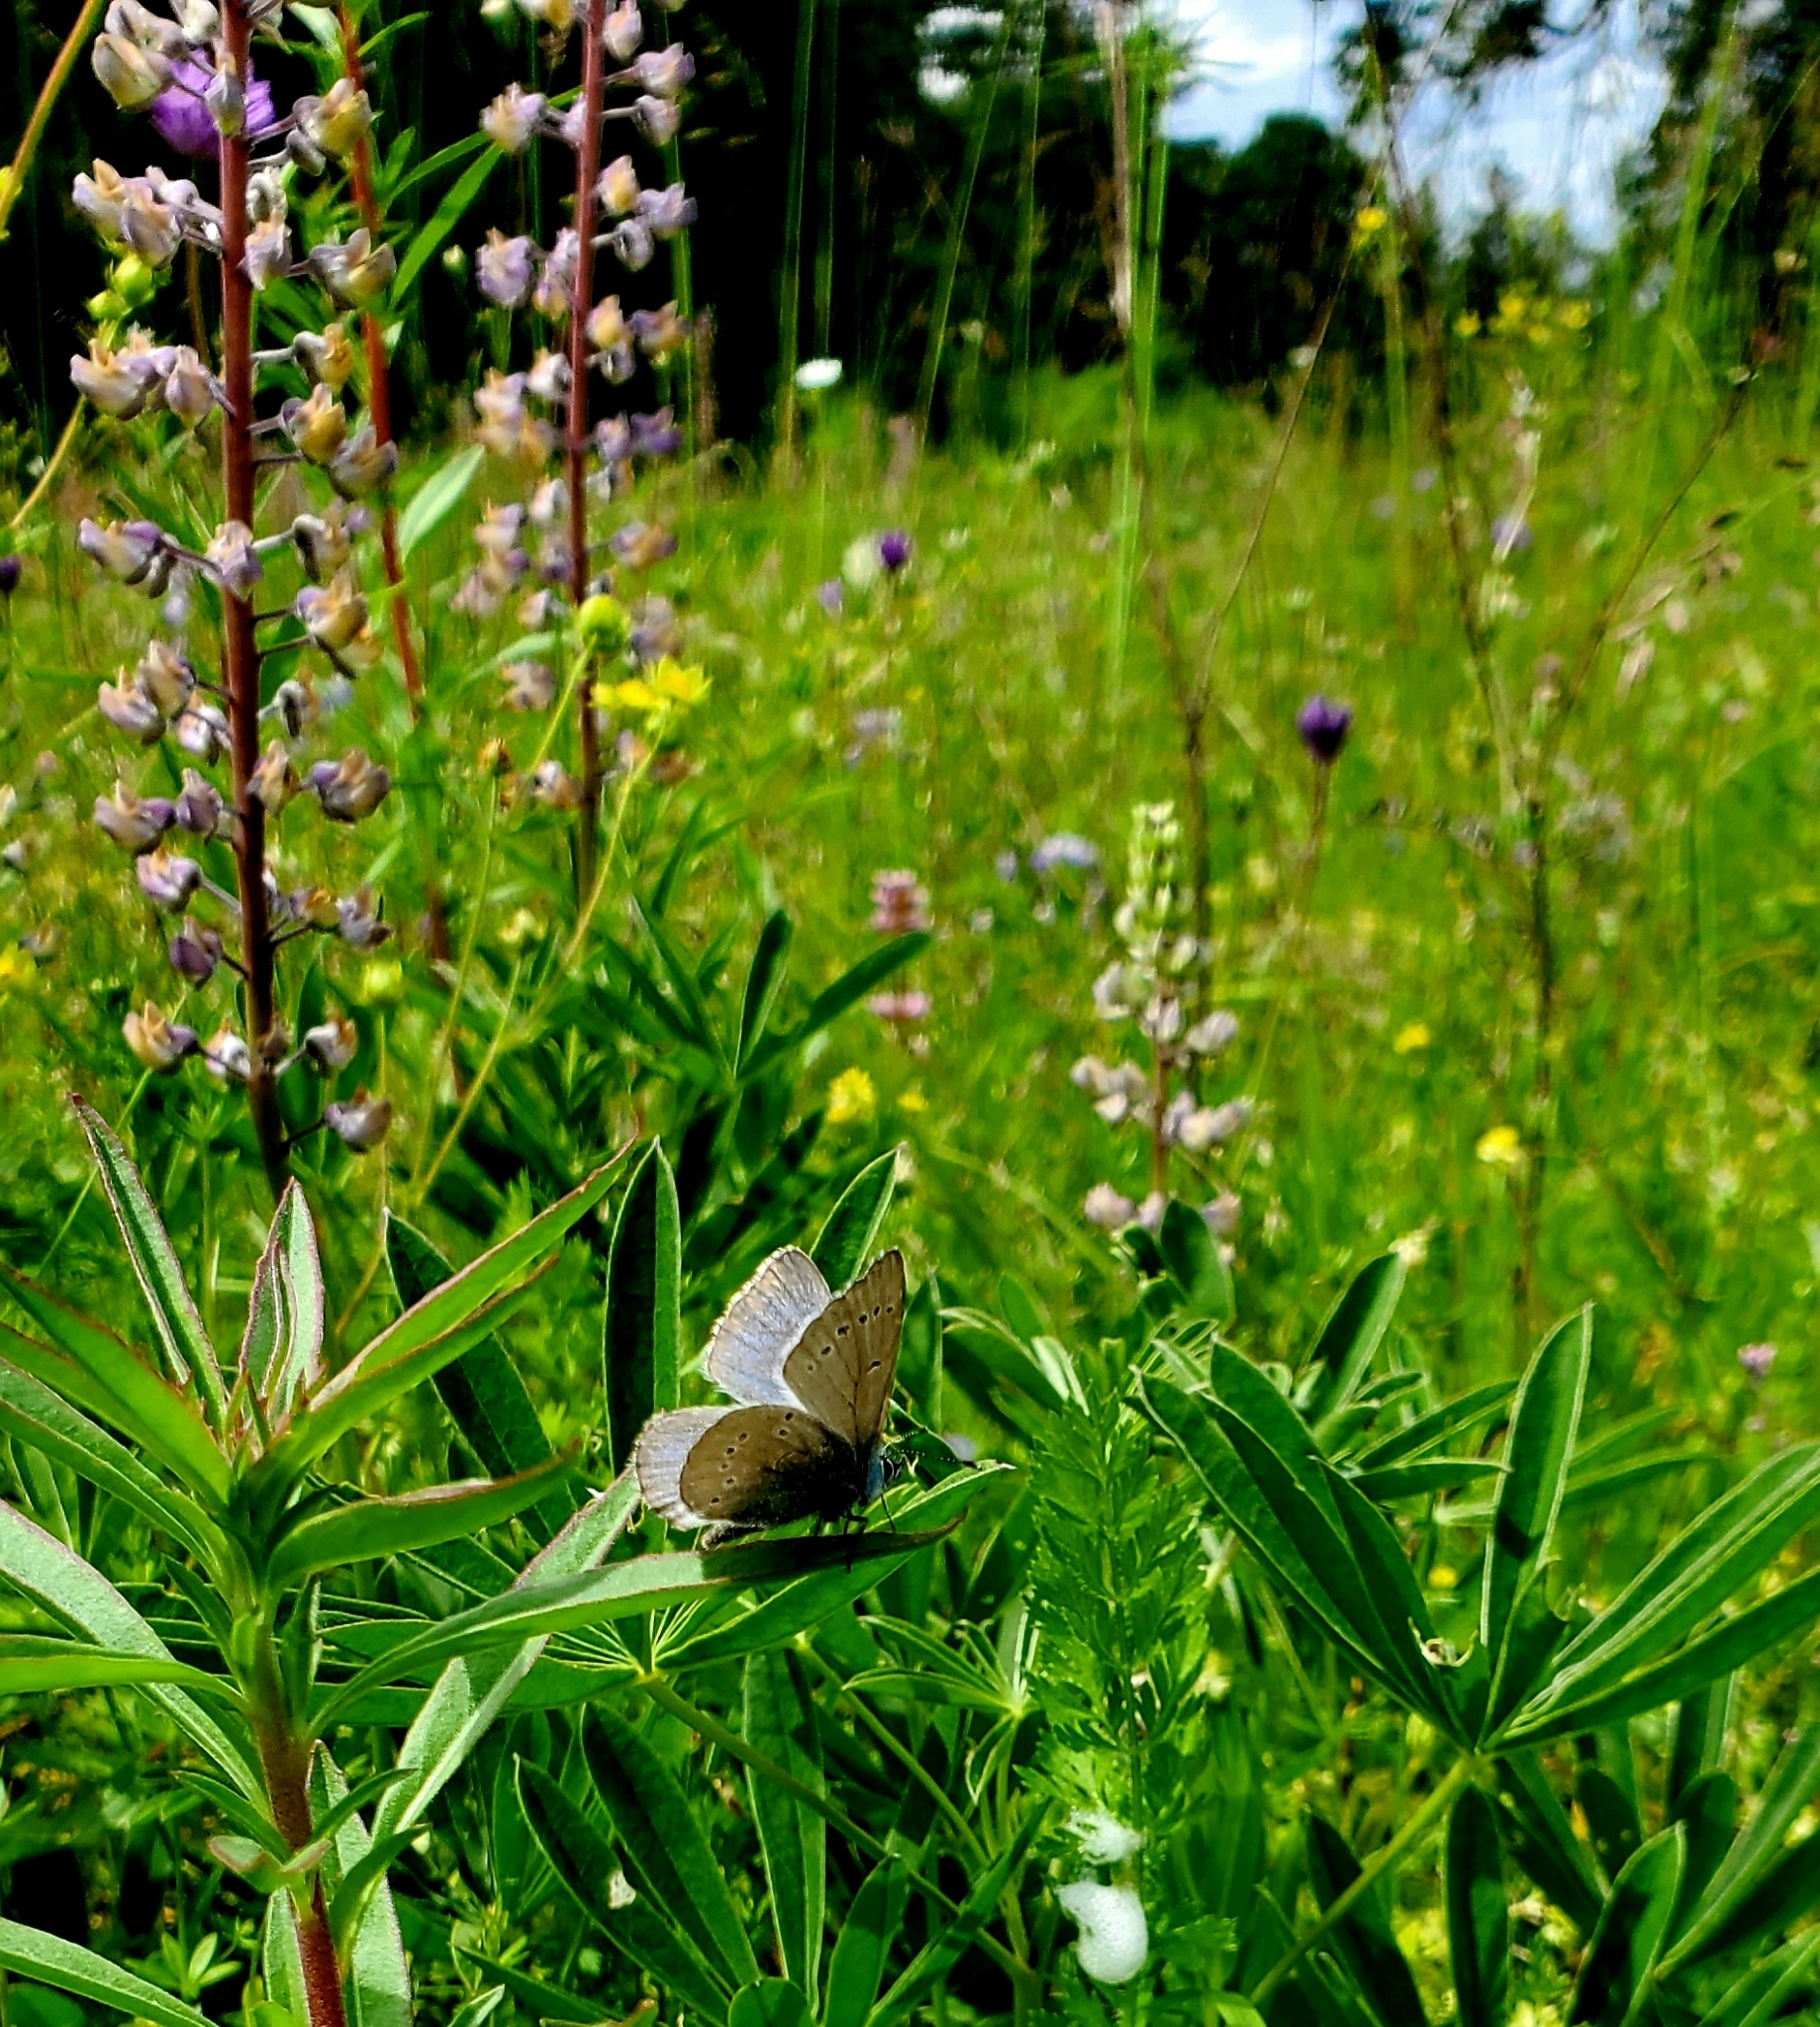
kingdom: Animalia
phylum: Arthropoda
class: Insecta
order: Lepidoptera
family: Lycaenidae
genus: Glaucopsyche
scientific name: Glaucopsyche lygdamus
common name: Silvery blue
